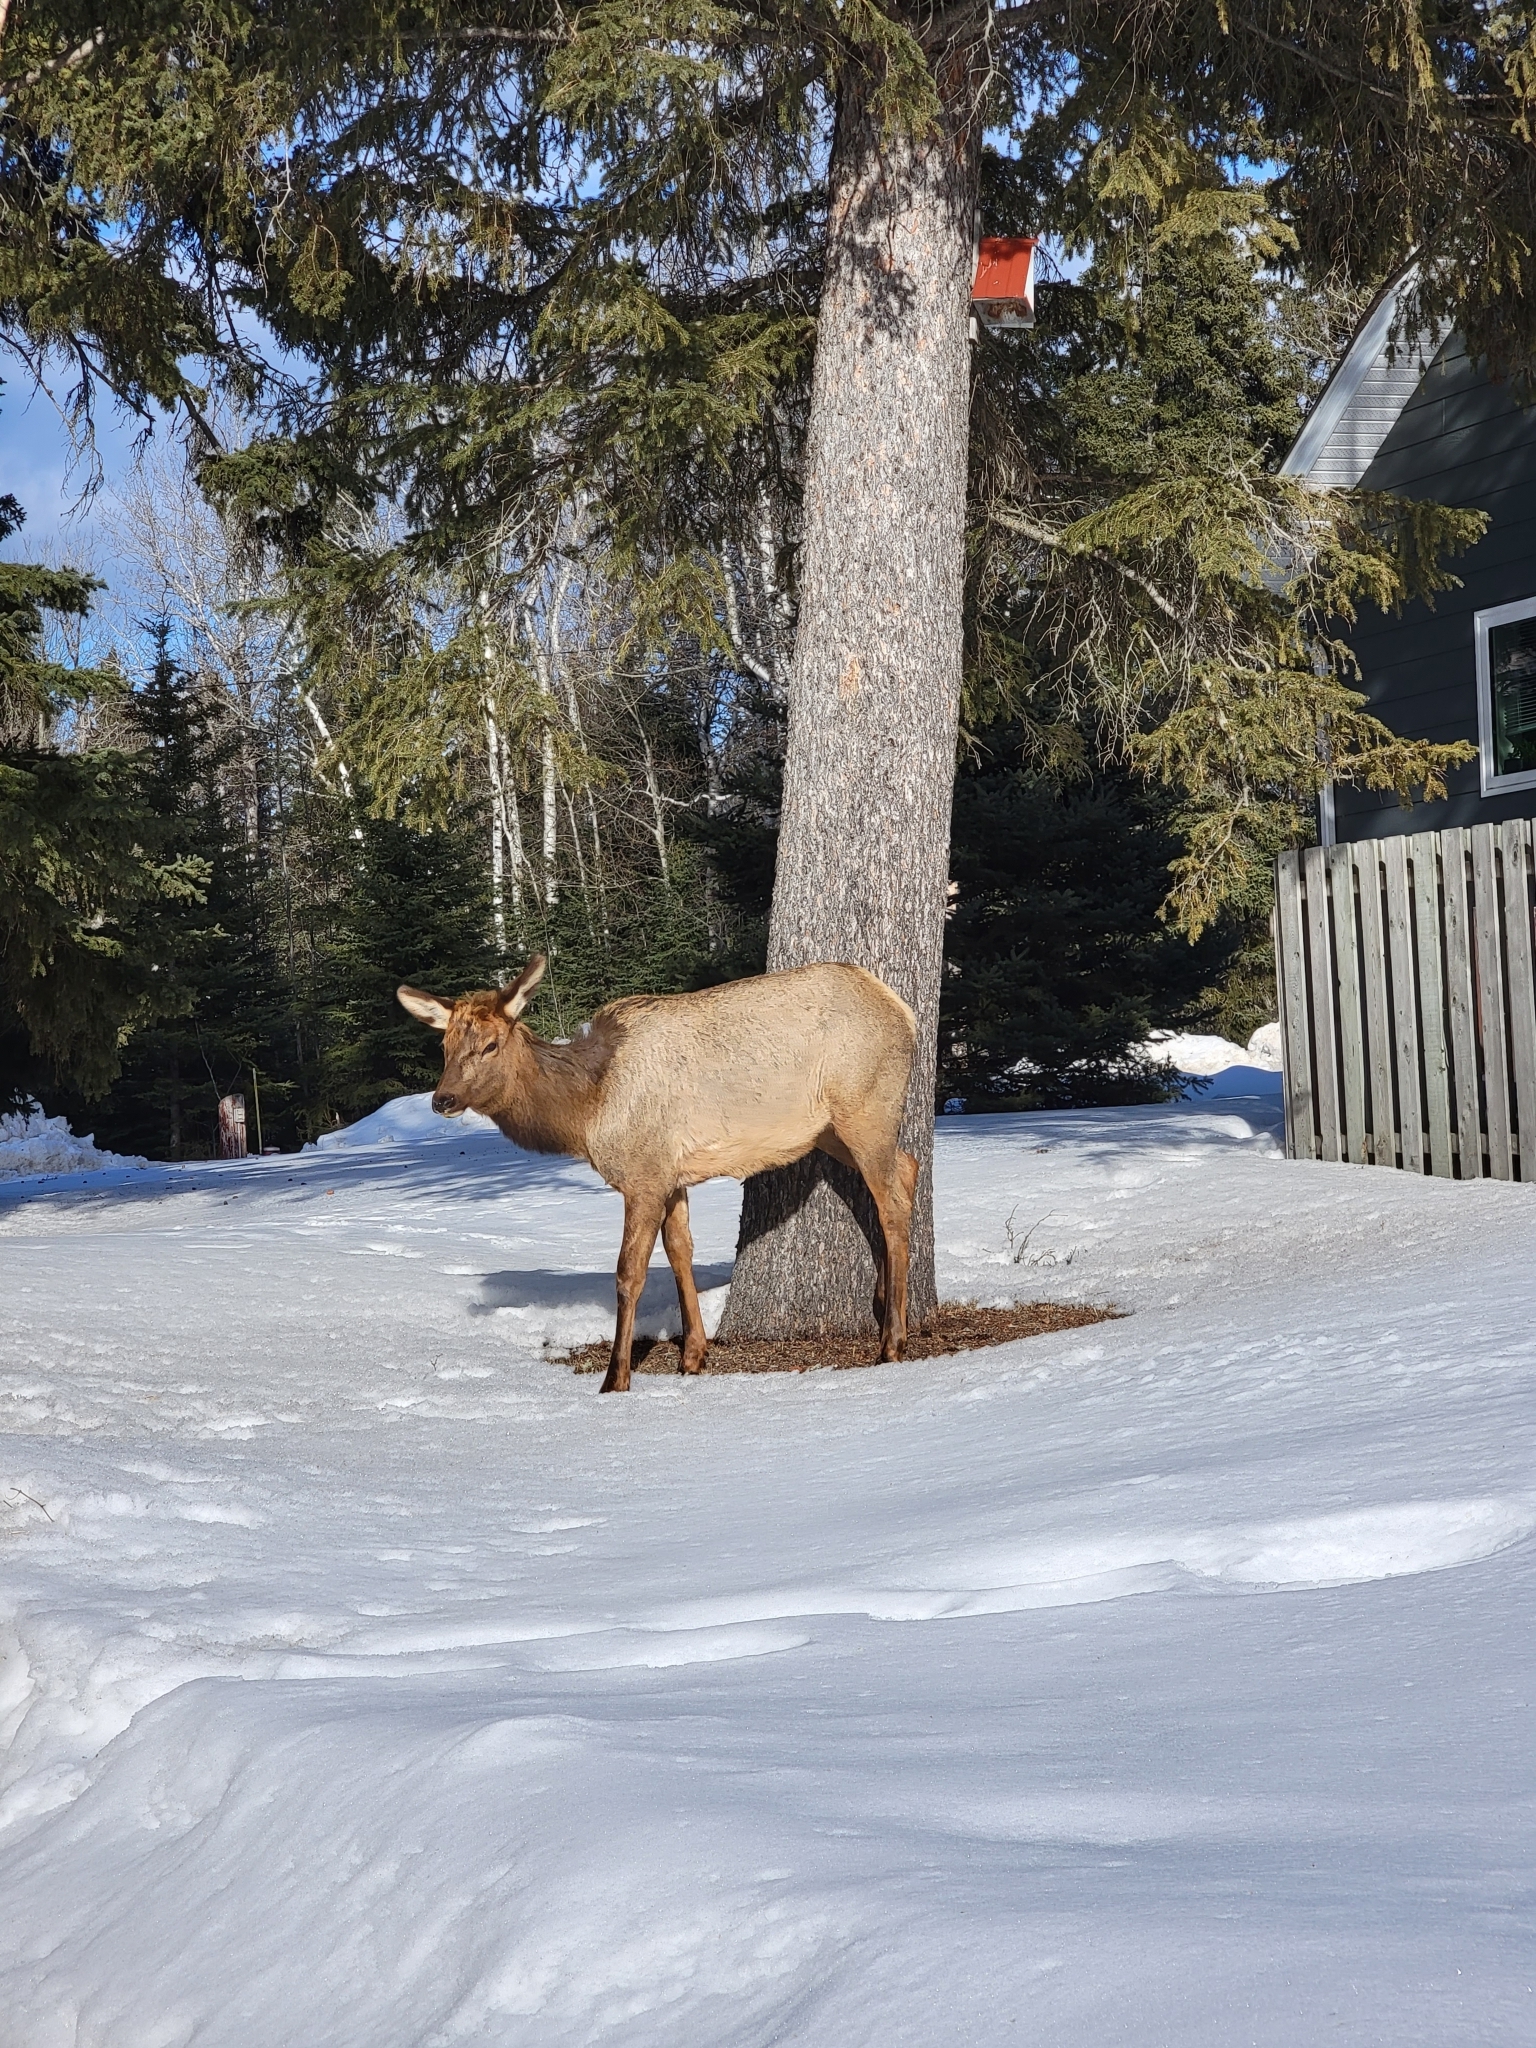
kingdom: Animalia
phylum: Chordata
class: Mammalia
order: Artiodactyla
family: Cervidae
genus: Cervus
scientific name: Cervus elaphus
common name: Red deer
